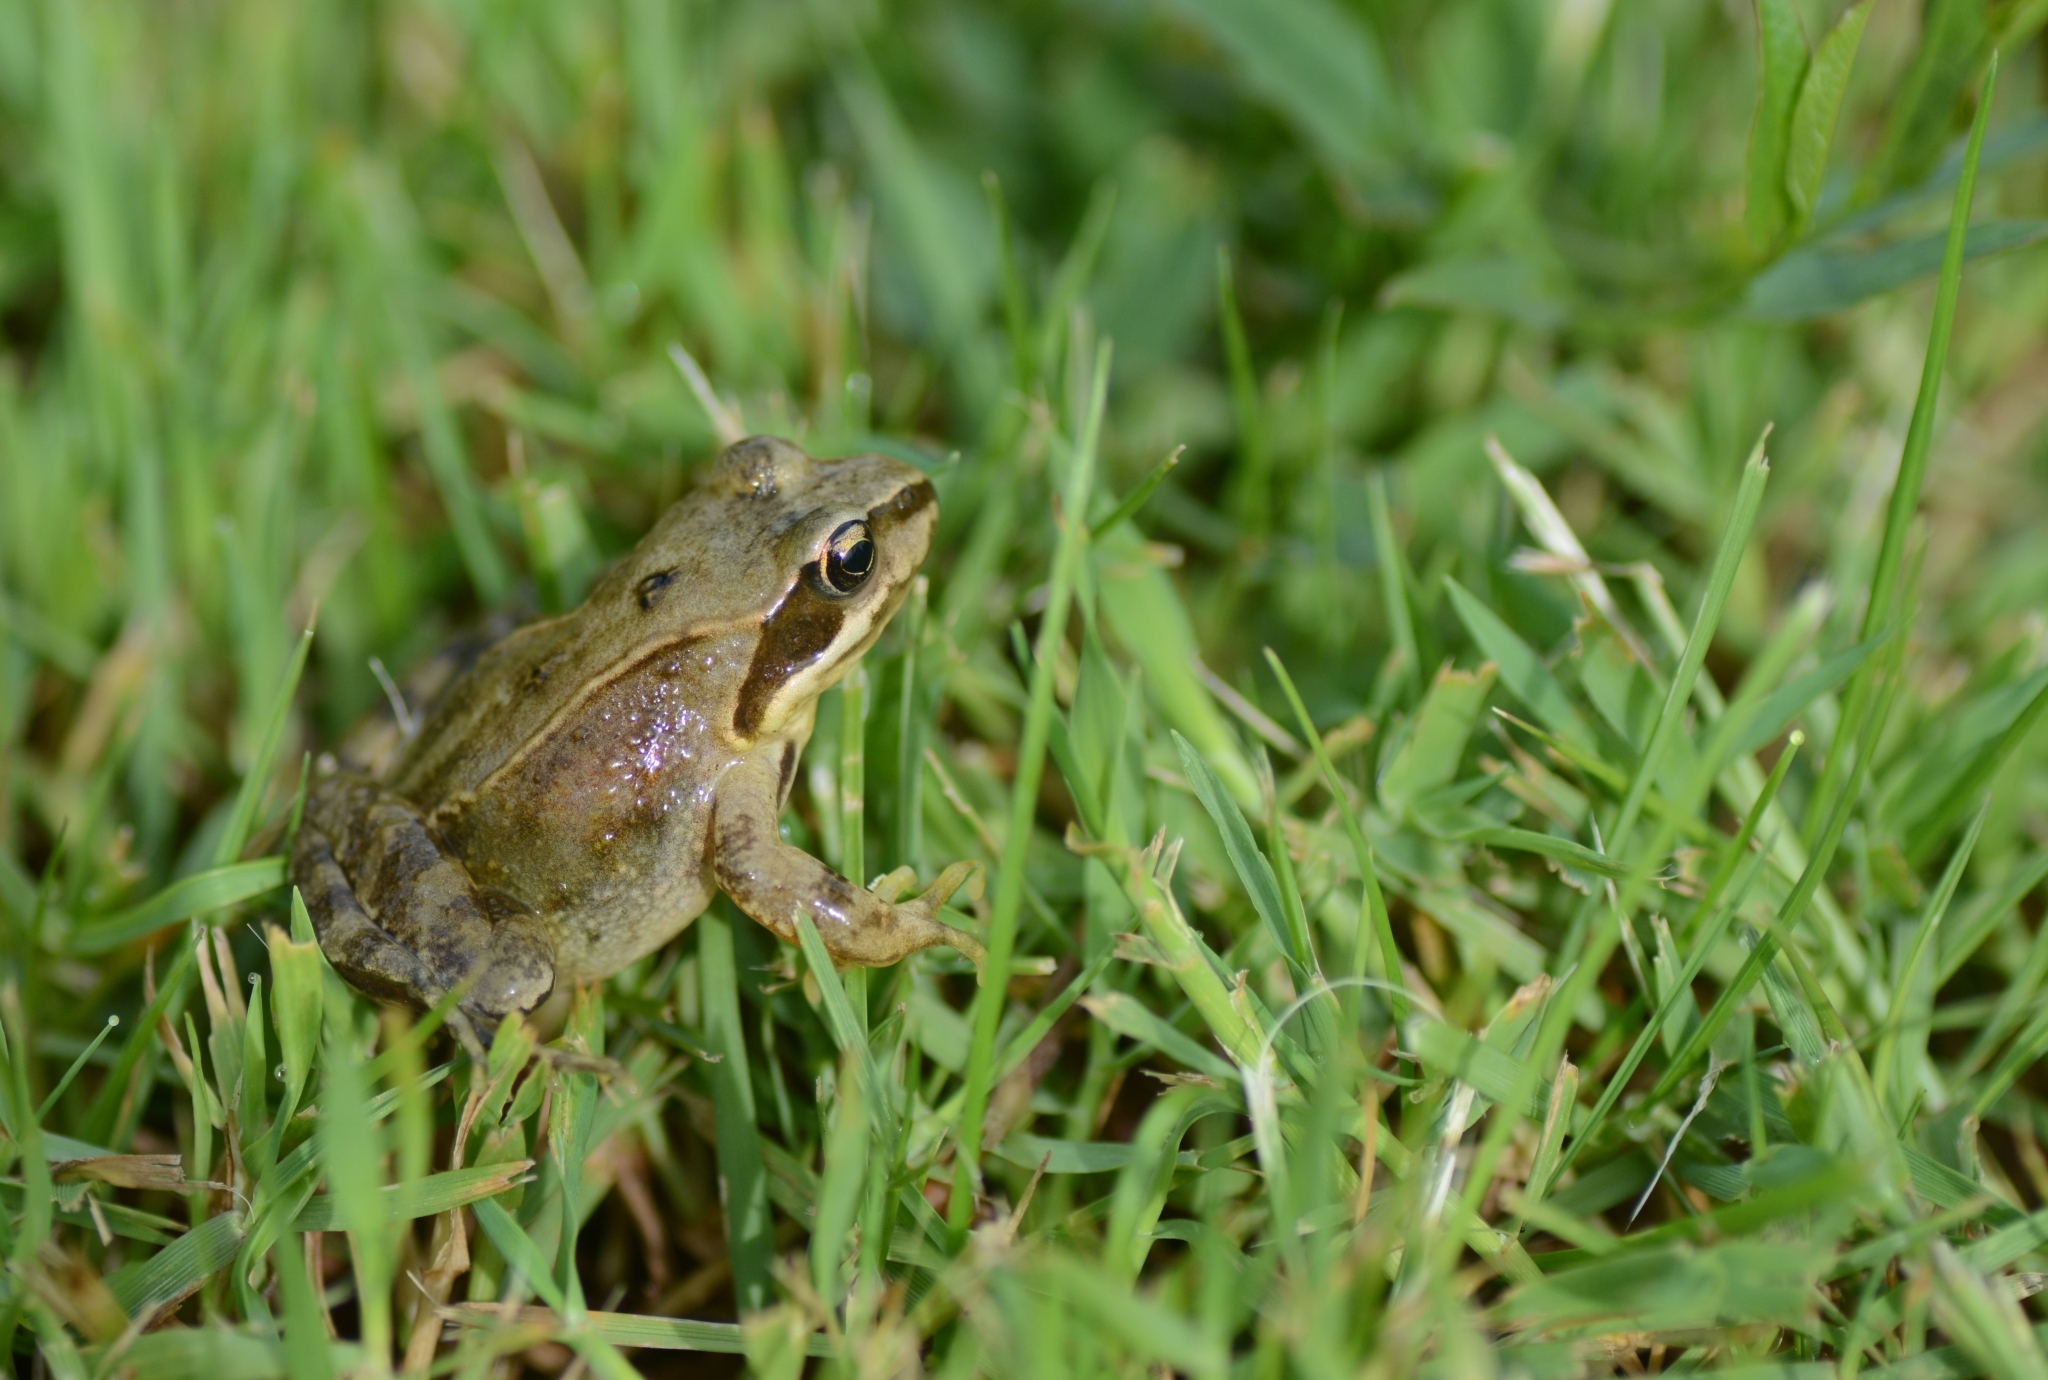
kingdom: Animalia
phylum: Chordata
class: Amphibia
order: Anura
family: Ranidae
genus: Rana
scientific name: Rana temporaria
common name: Common frog
